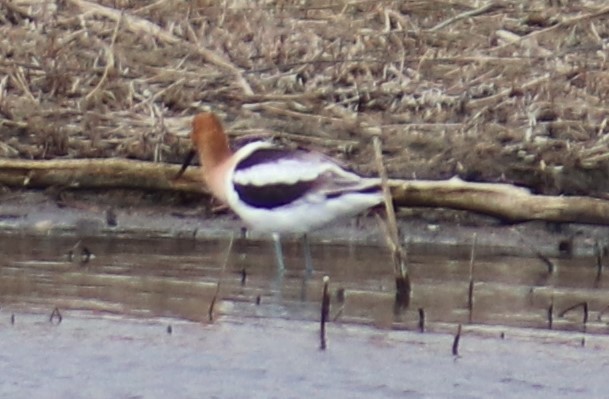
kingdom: Animalia
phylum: Chordata
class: Aves
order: Charadriiformes
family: Recurvirostridae
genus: Recurvirostra
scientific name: Recurvirostra americana
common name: American avocet
